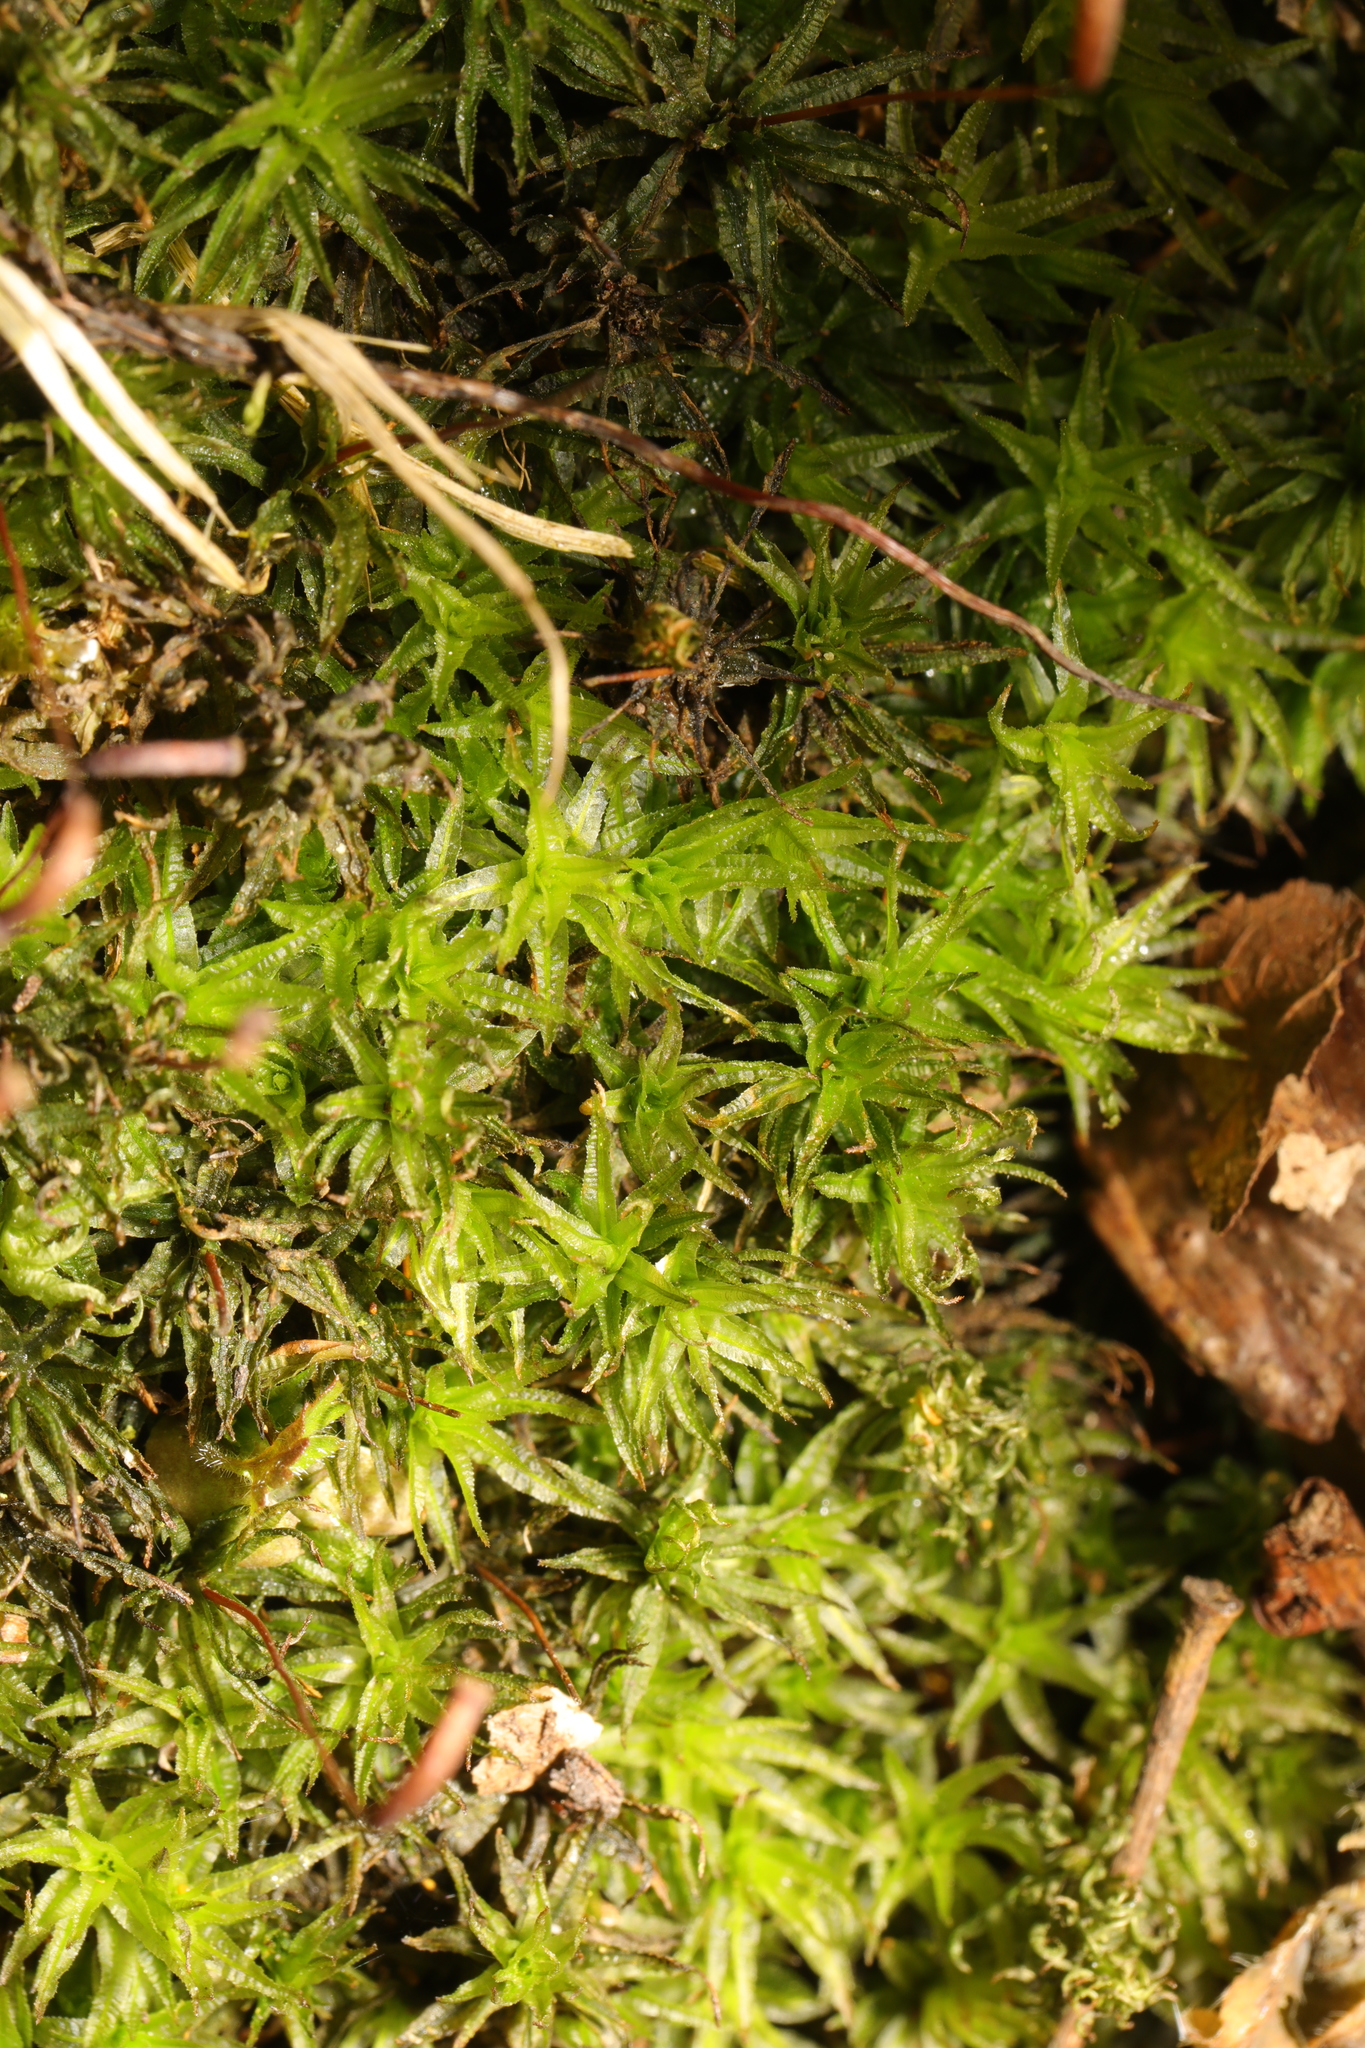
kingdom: Plantae
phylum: Bryophyta
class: Polytrichopsida
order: Polytrichales
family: Polytrichaceae
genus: Atrichum
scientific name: Atrichum undulatum
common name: Common smoothcap
